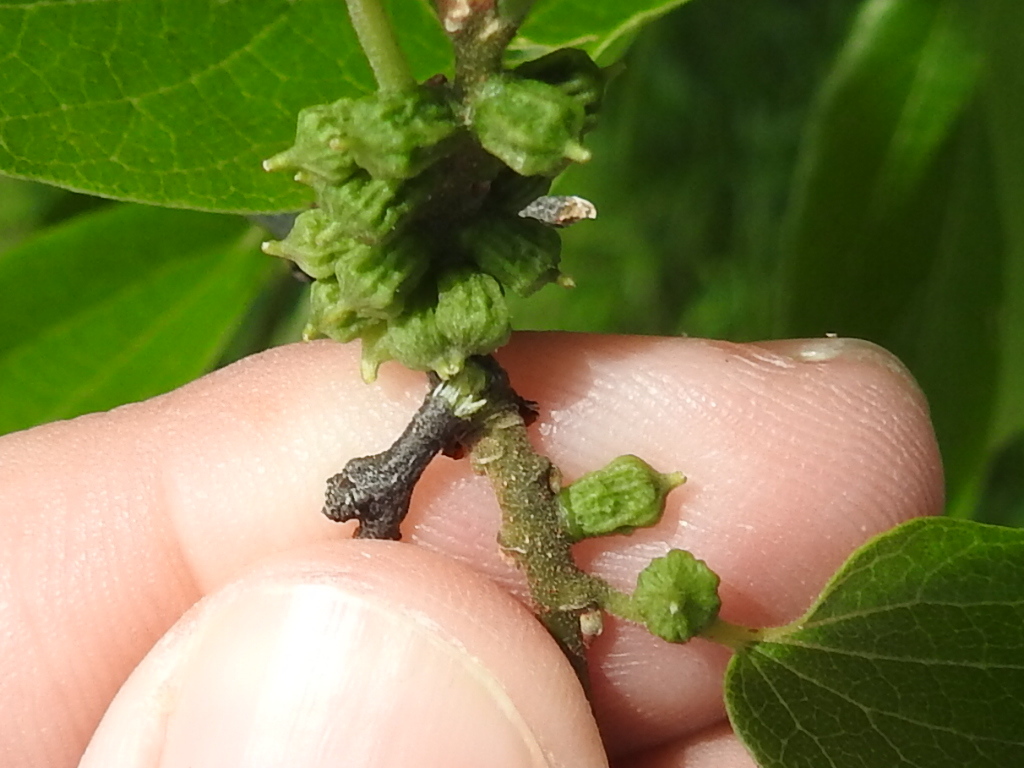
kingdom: Animalia
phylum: Arthropoda
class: Insecta
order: Diptera
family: Cecidomyiidae
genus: Celticecis
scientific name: Celticecis ramicola
